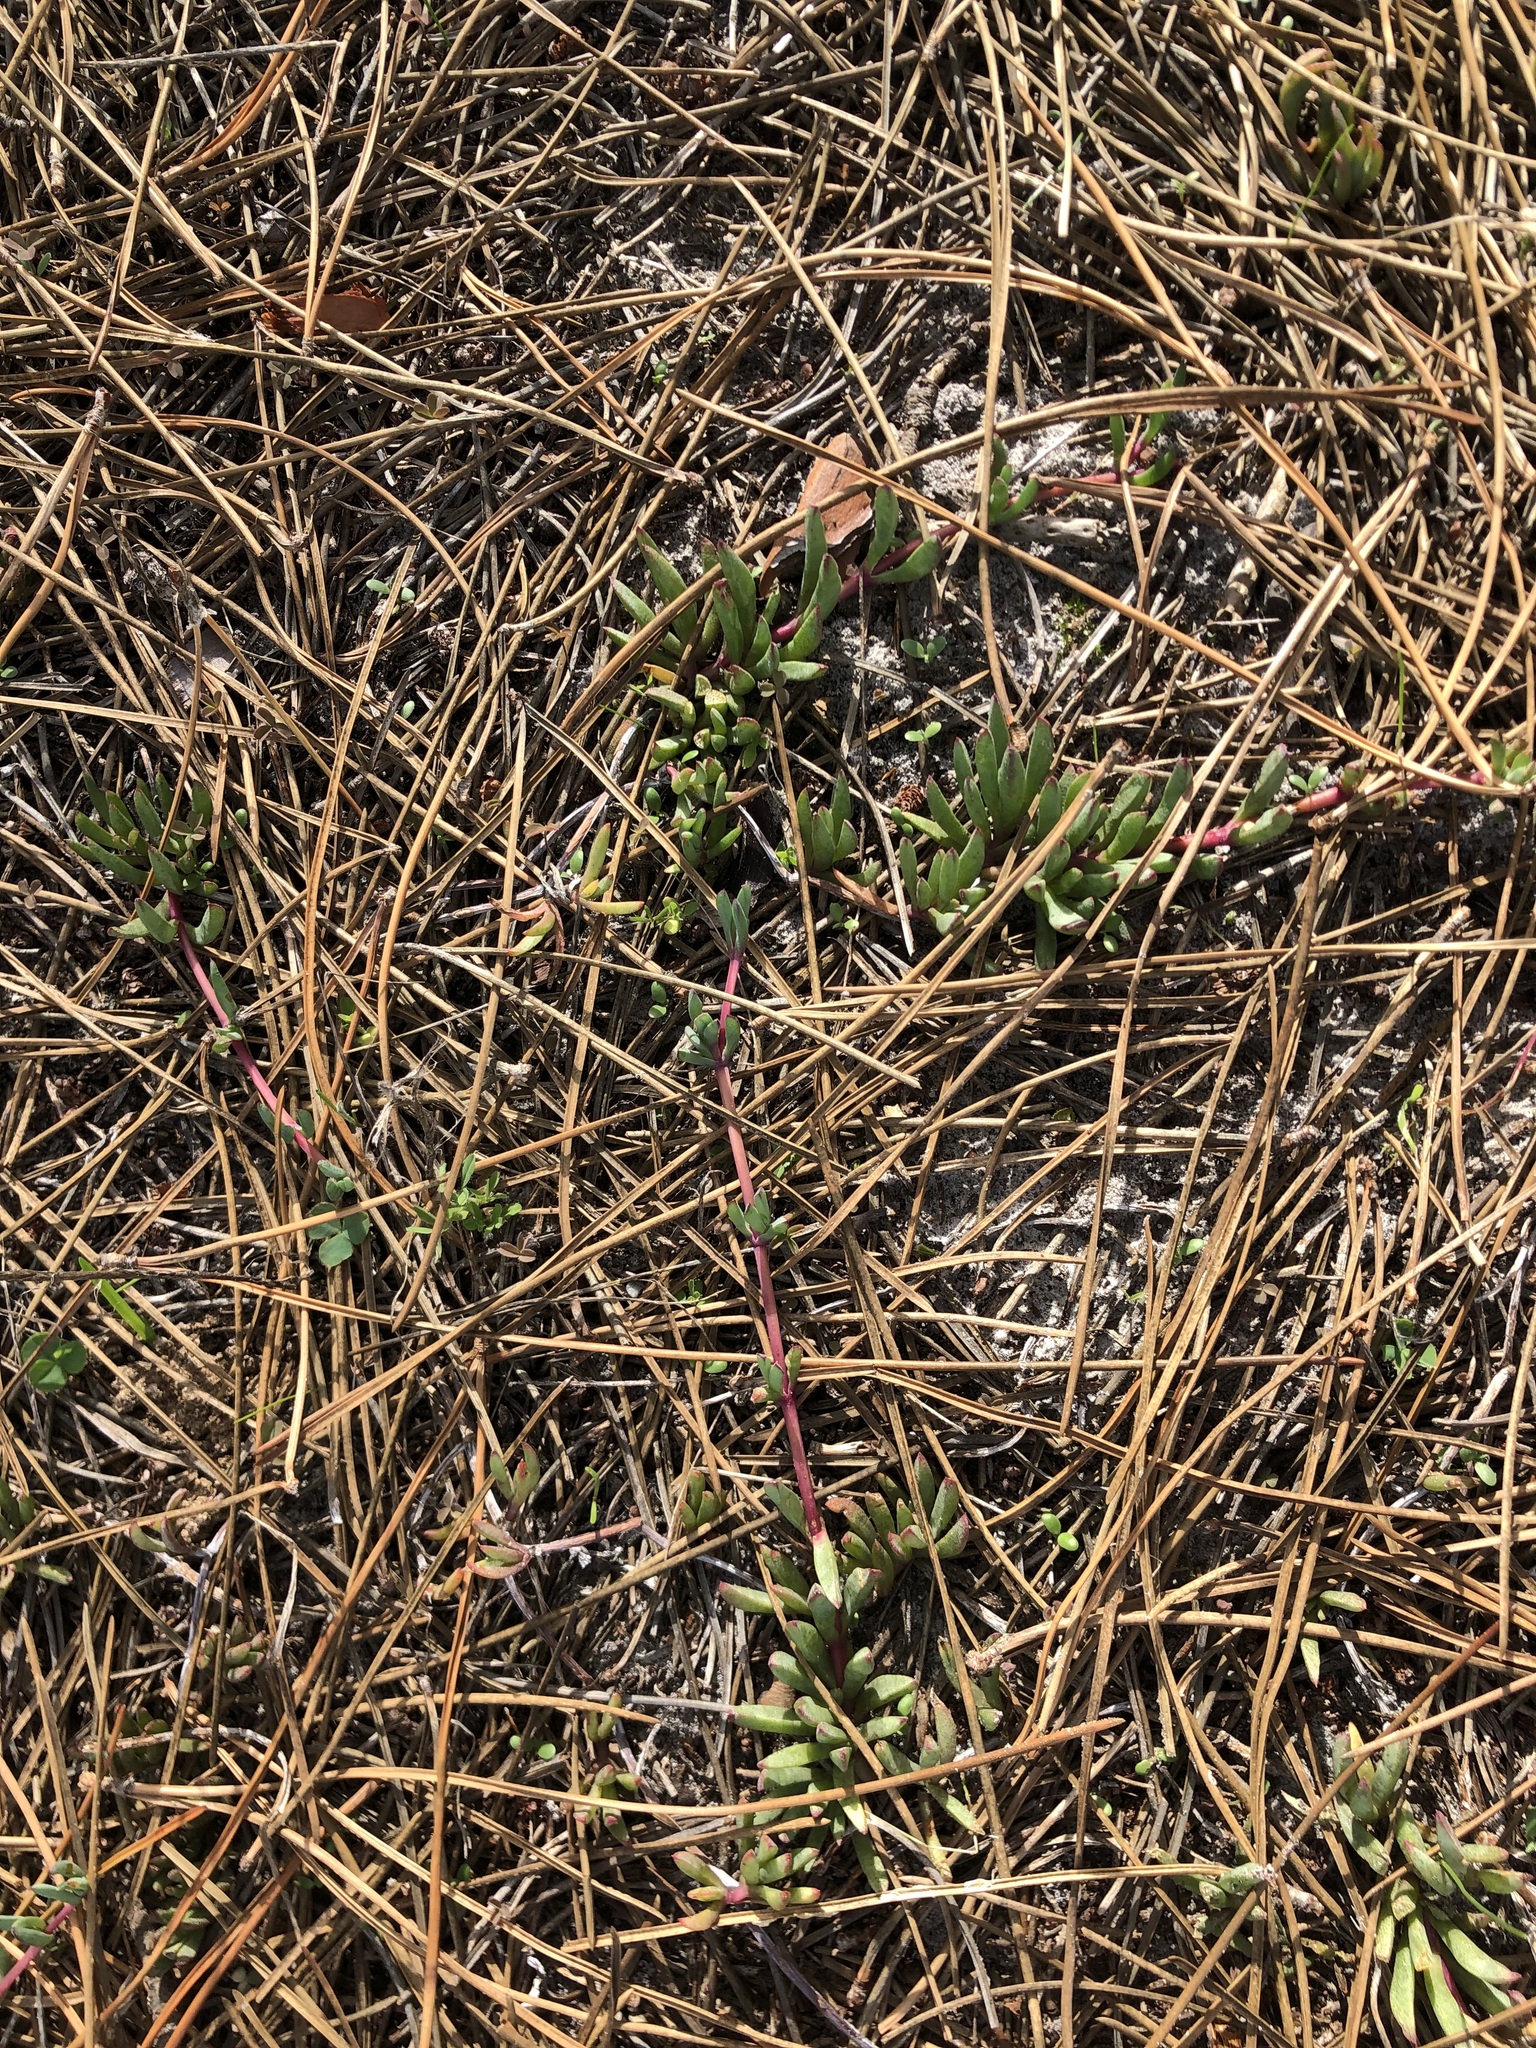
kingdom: Plantae
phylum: Tracheophyta
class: Magnoliopsida
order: Caryophyllales
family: Aizoaceae
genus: Lampranthus
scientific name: Lampranthus reptans
